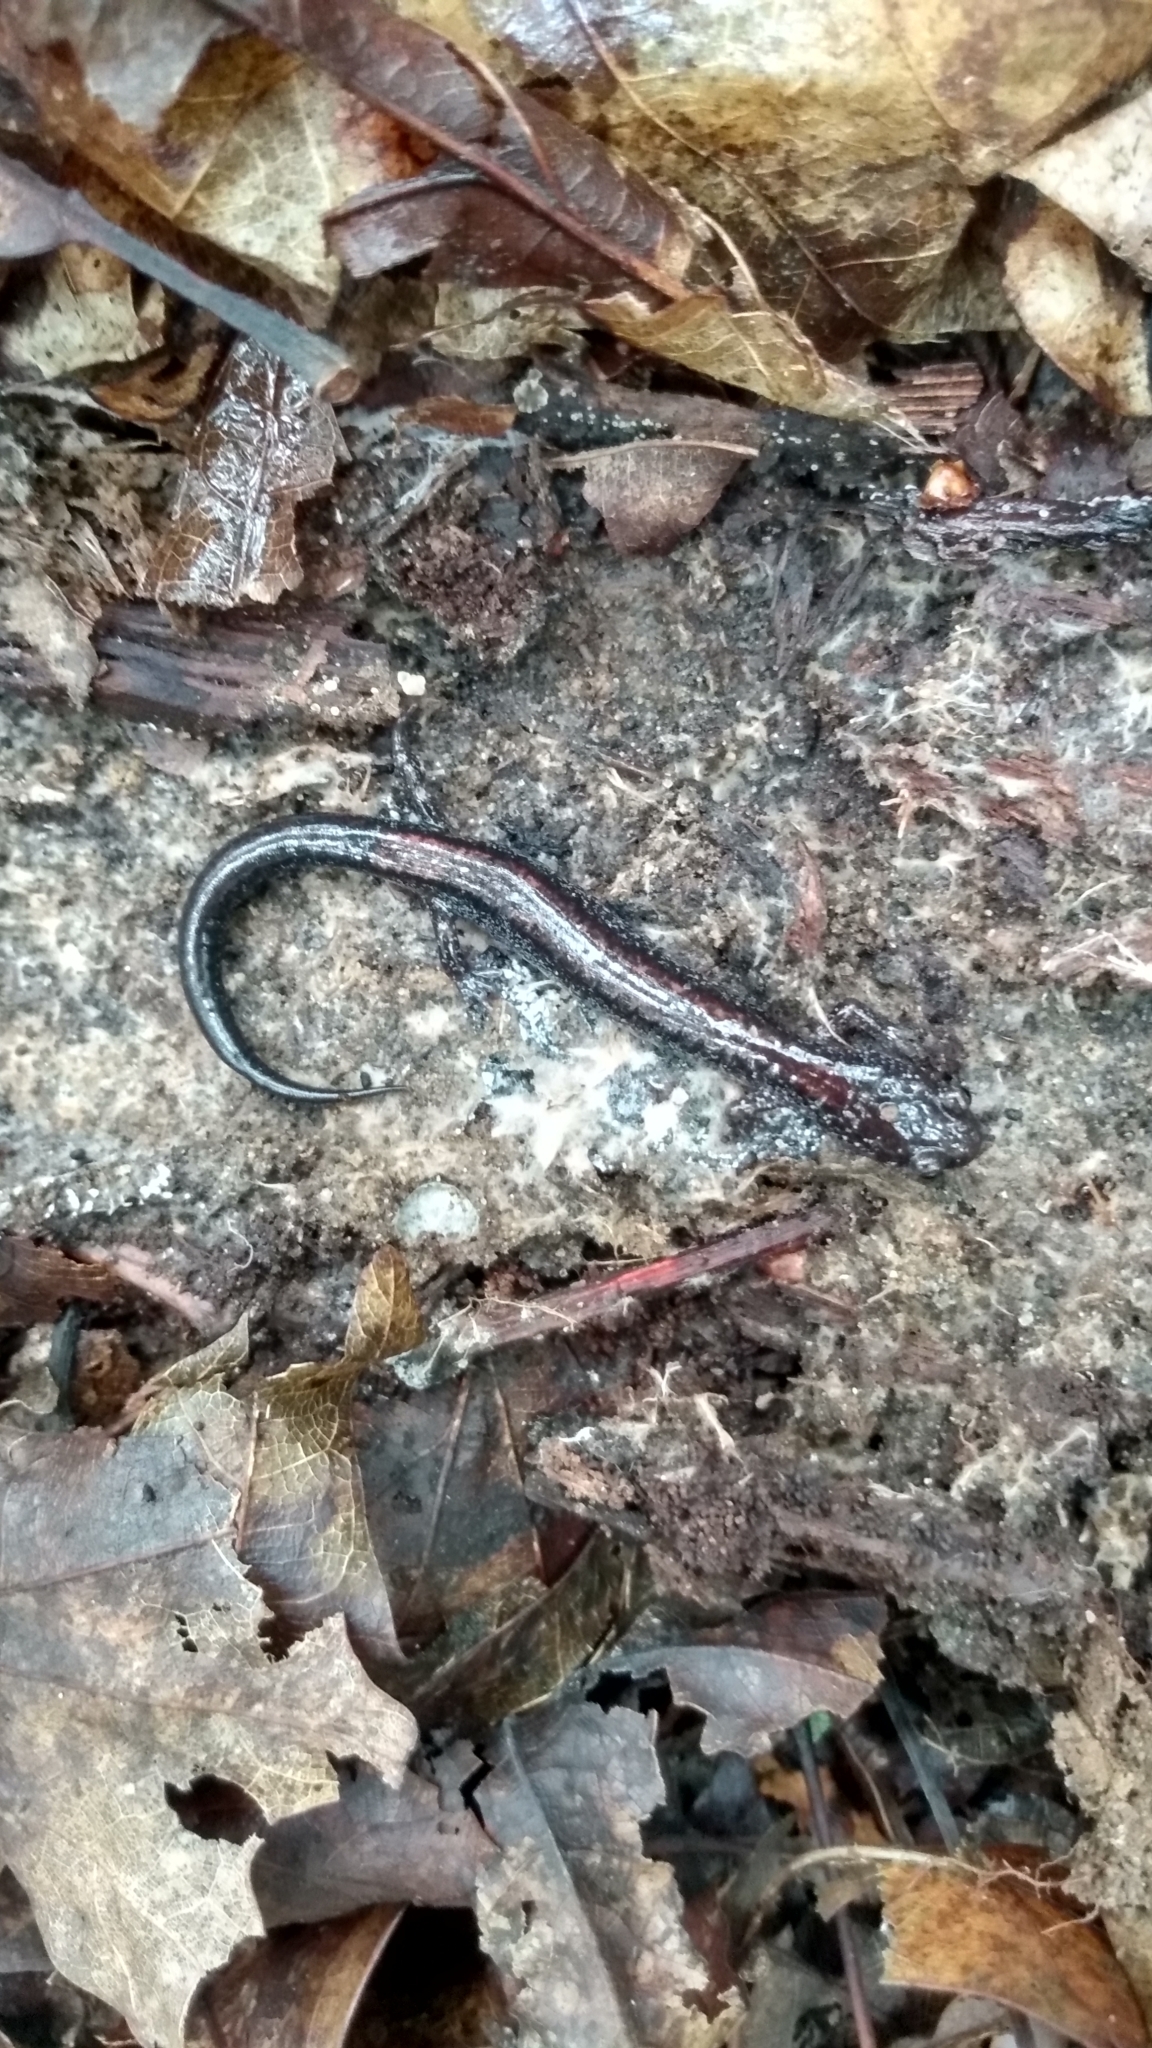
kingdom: Animalia
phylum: Chordata
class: Amphibia
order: Caudata
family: Plethodontidae
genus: Plethodon
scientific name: Plethodon cinereus
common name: Redback salamander
